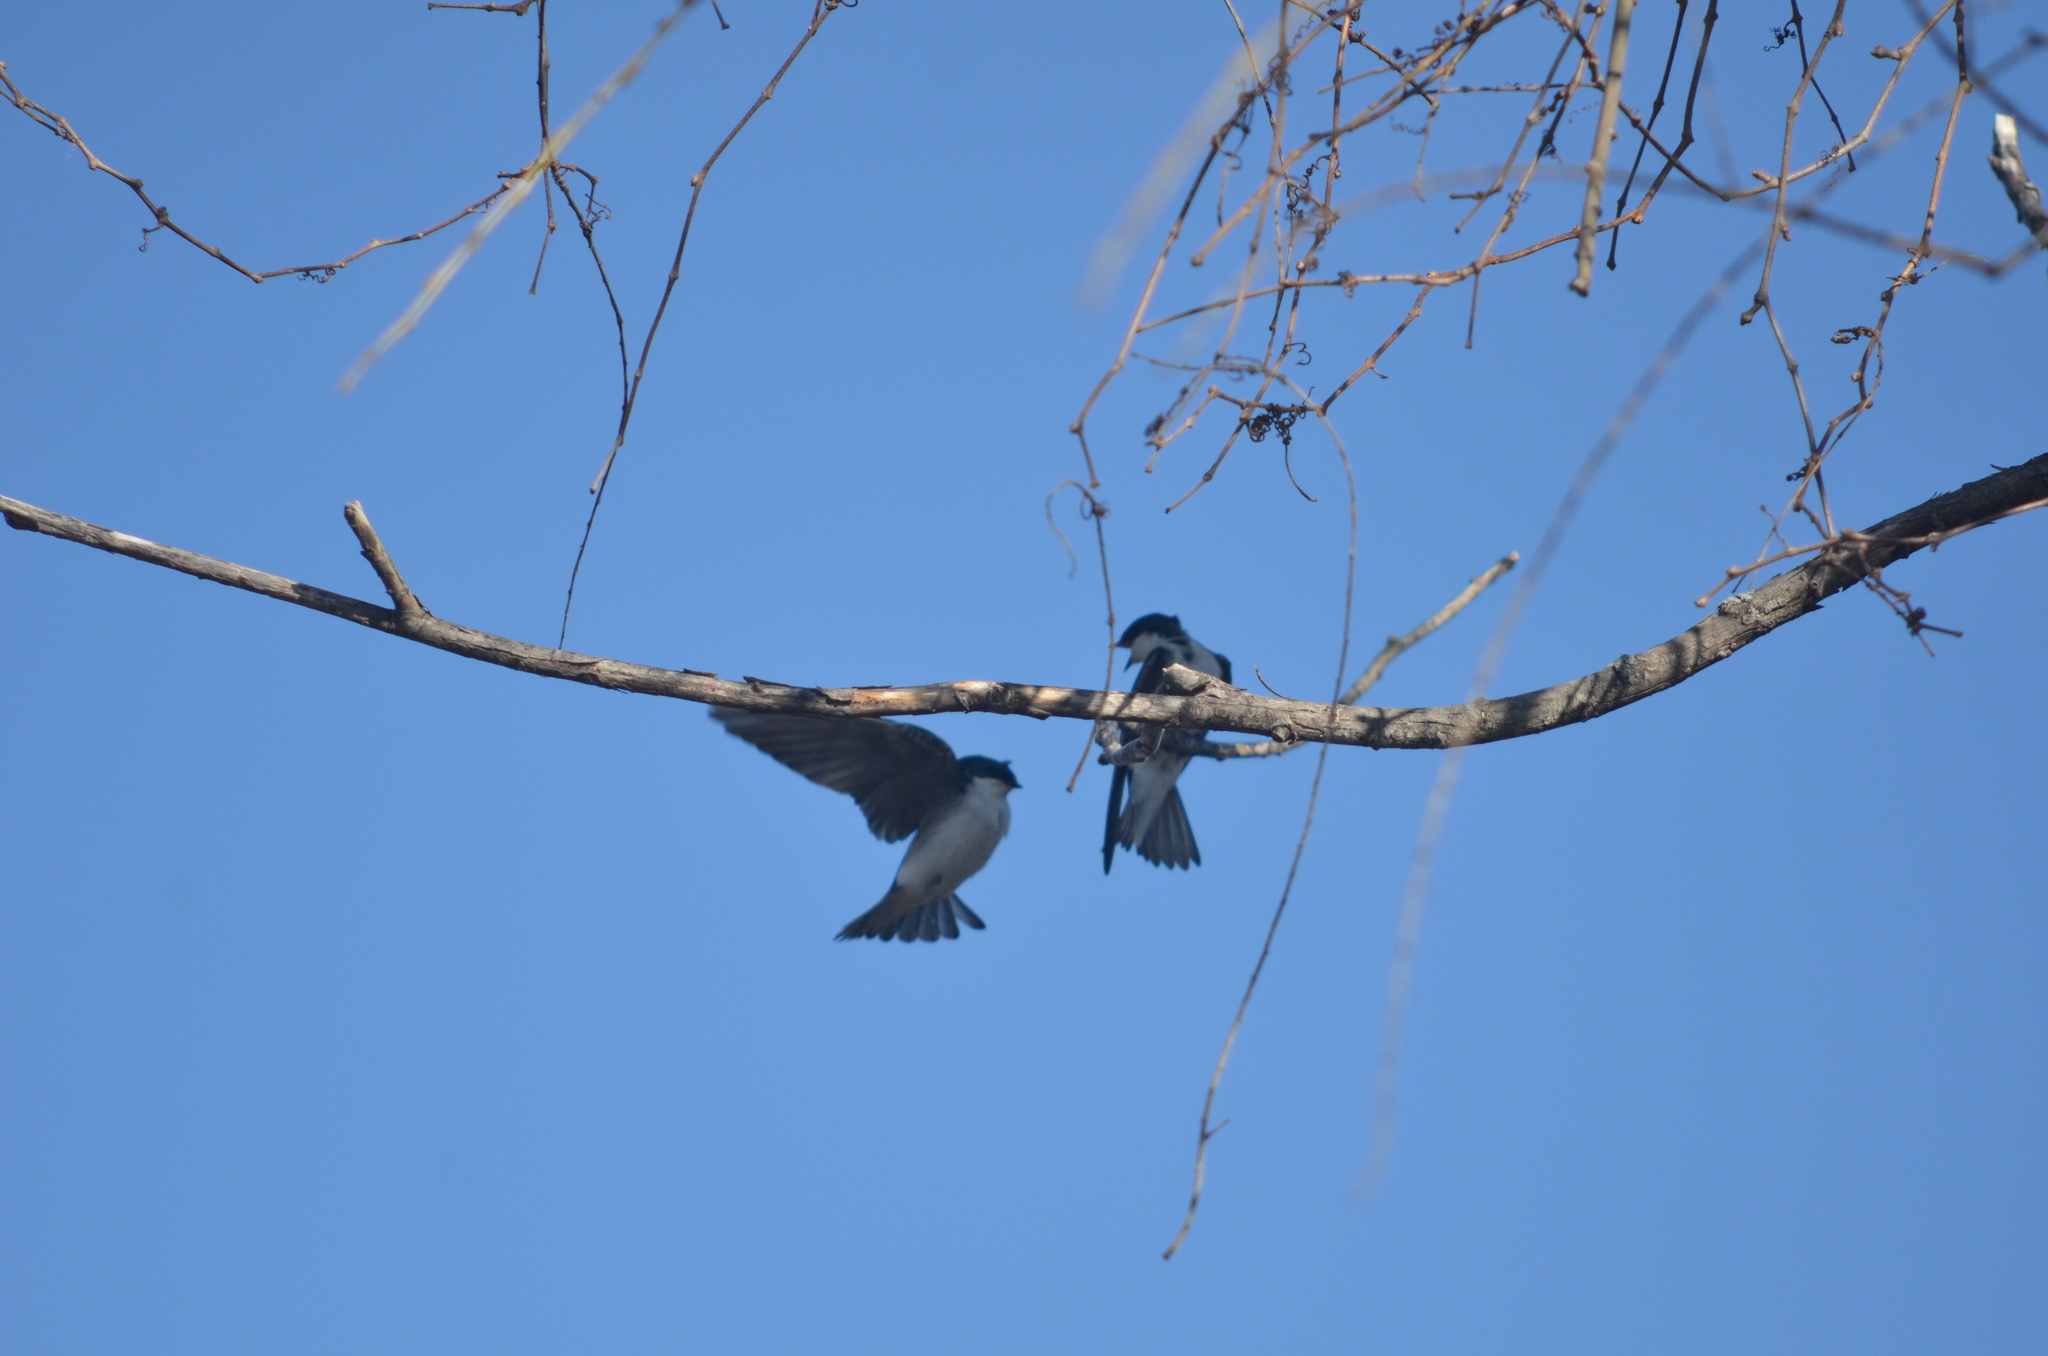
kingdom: Animalia
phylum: Chordata
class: Aves
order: Passeriformes
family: Hirundinidae
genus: Tachycineta
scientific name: Tachycineta bicolor
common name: Tree swallow
